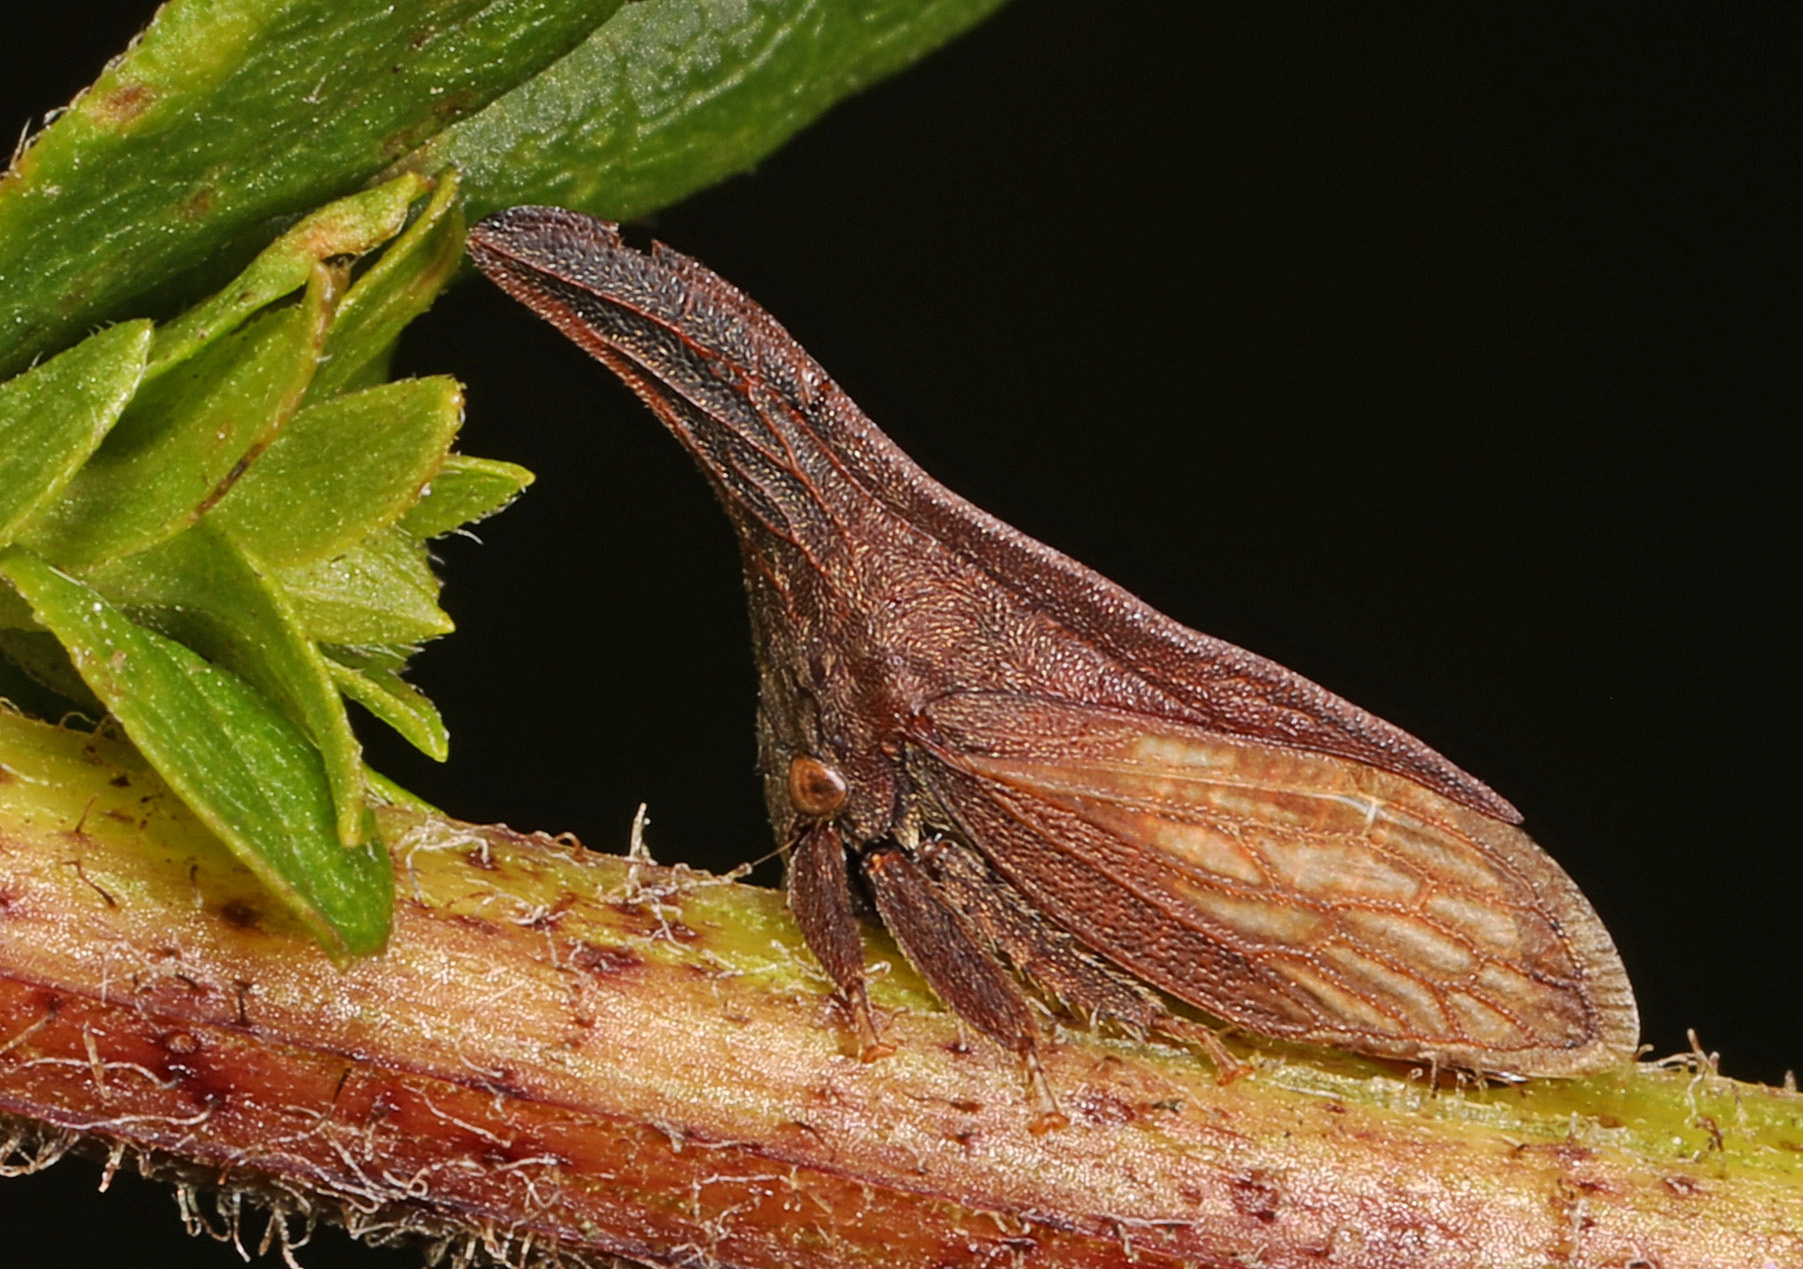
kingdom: Animalia
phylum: Arthropoda
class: Insecta
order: Hemiptera
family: Membracidae
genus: Enchenopa
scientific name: Enchenopa latipes
